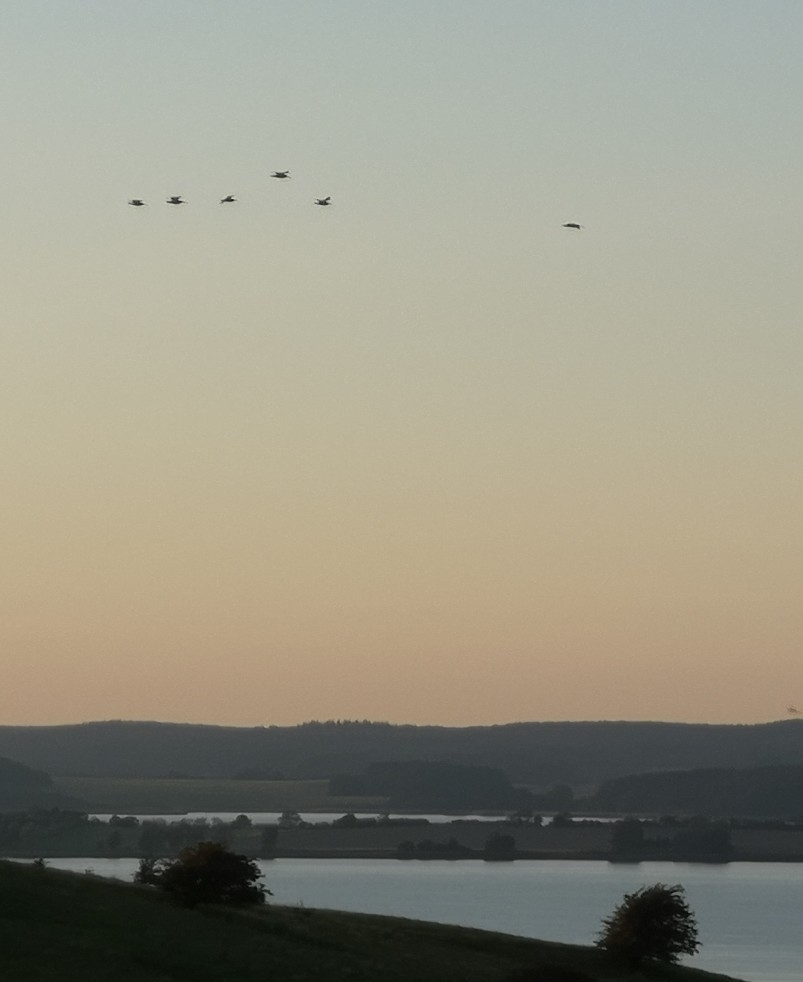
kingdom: Animalia
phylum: Chordata
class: Aves
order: Charadriiformes
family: Scolopacidae
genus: Numenius
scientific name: Numenius arquata
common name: Eurasian curlew
